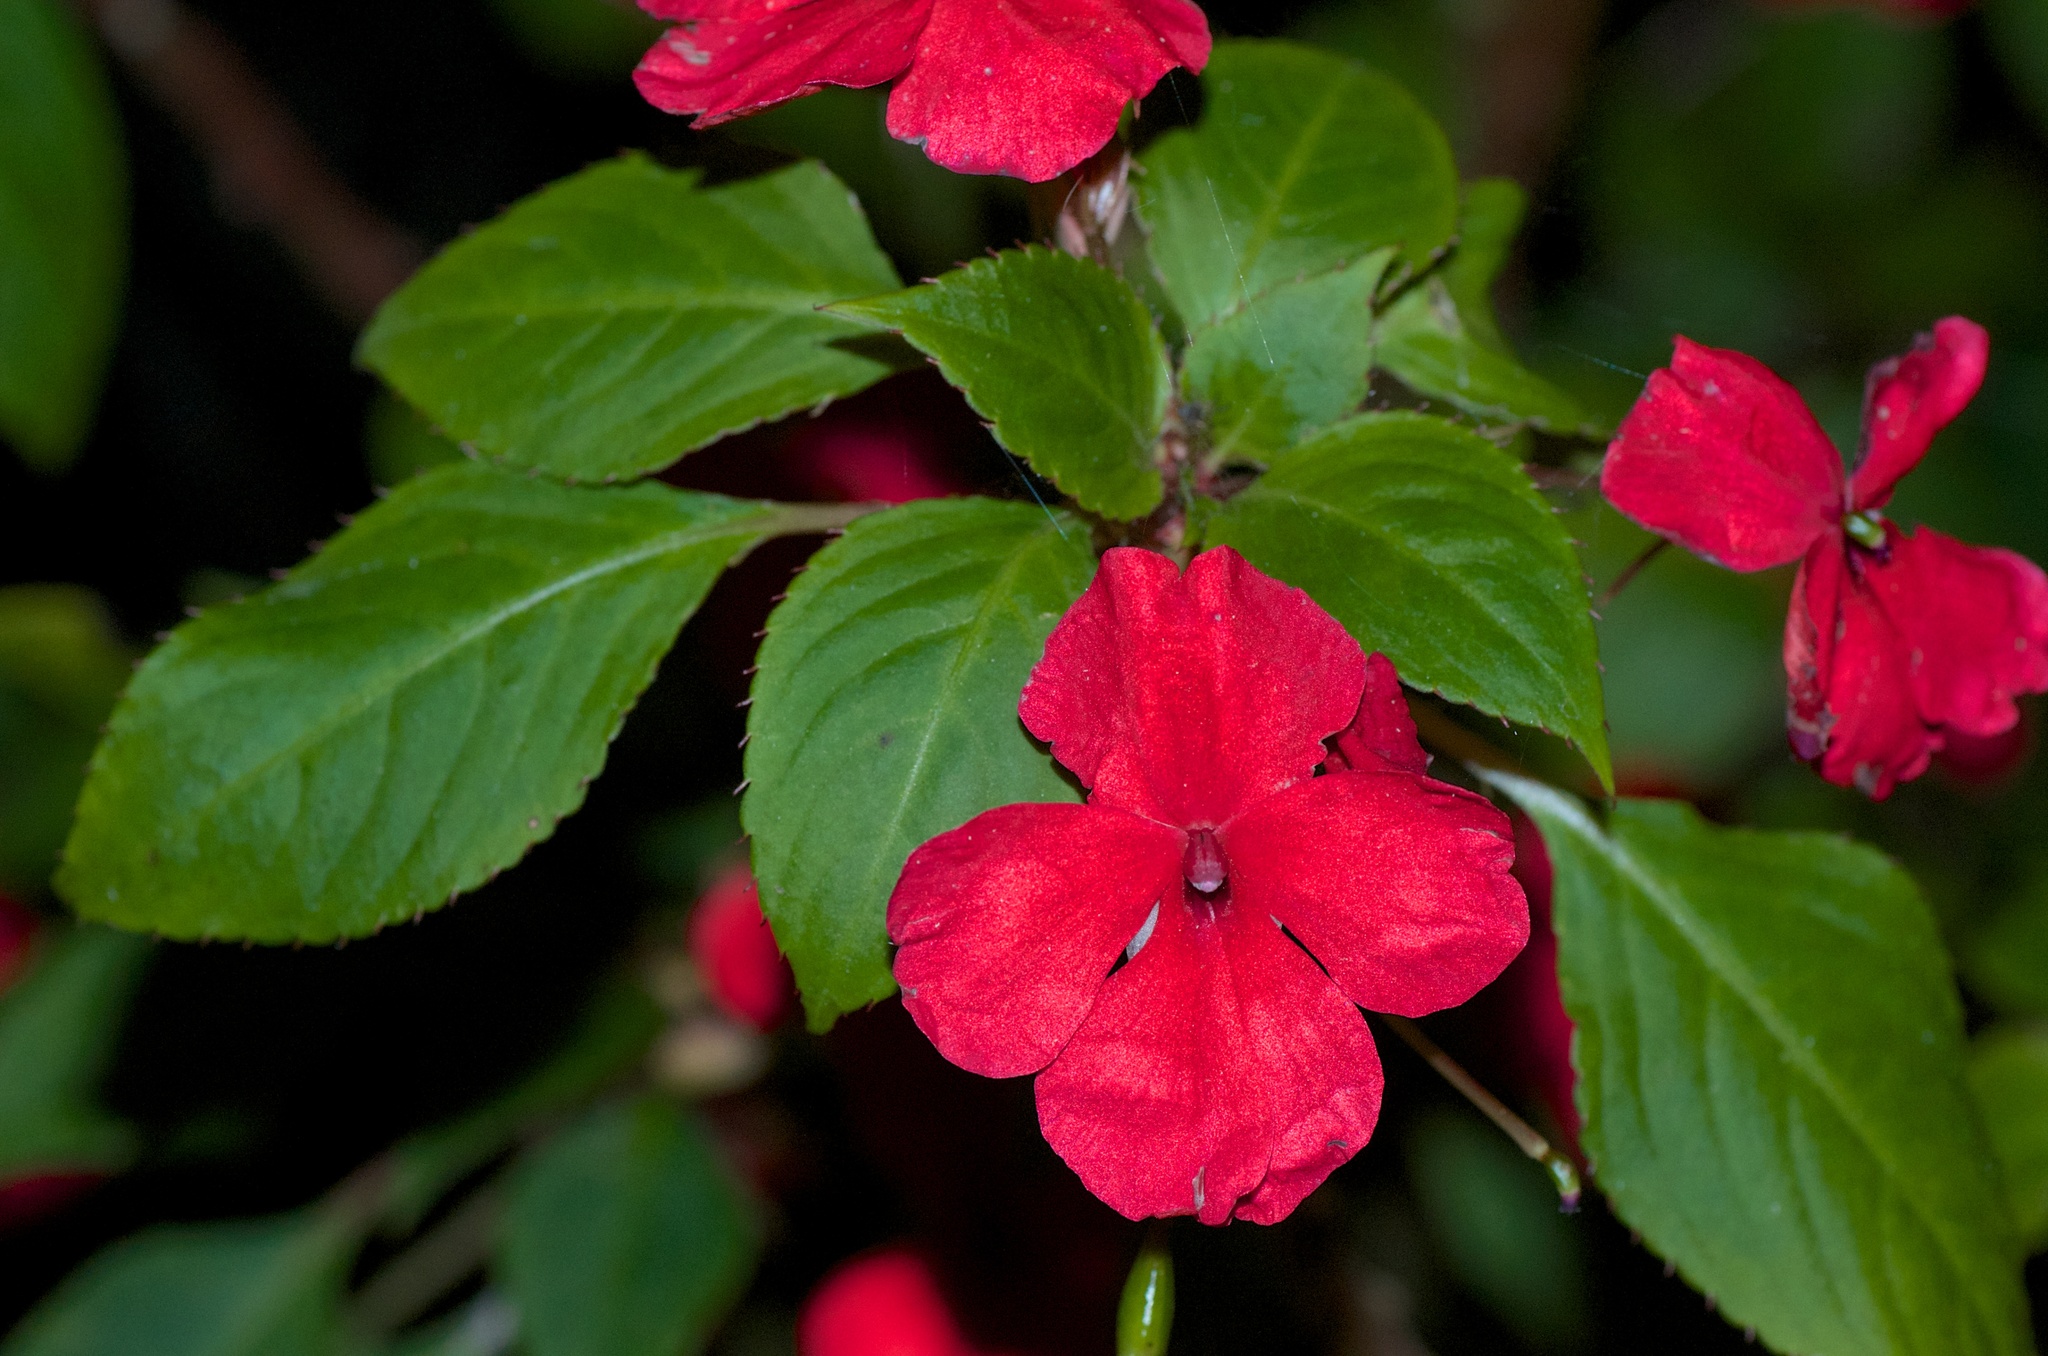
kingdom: Plantae
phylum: Tracheophyta
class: Magnoliopsida
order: Ericales
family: Balsaminaceae
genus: Impatiens
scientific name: Impatiens walleriana
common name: Buzzy lizzy
